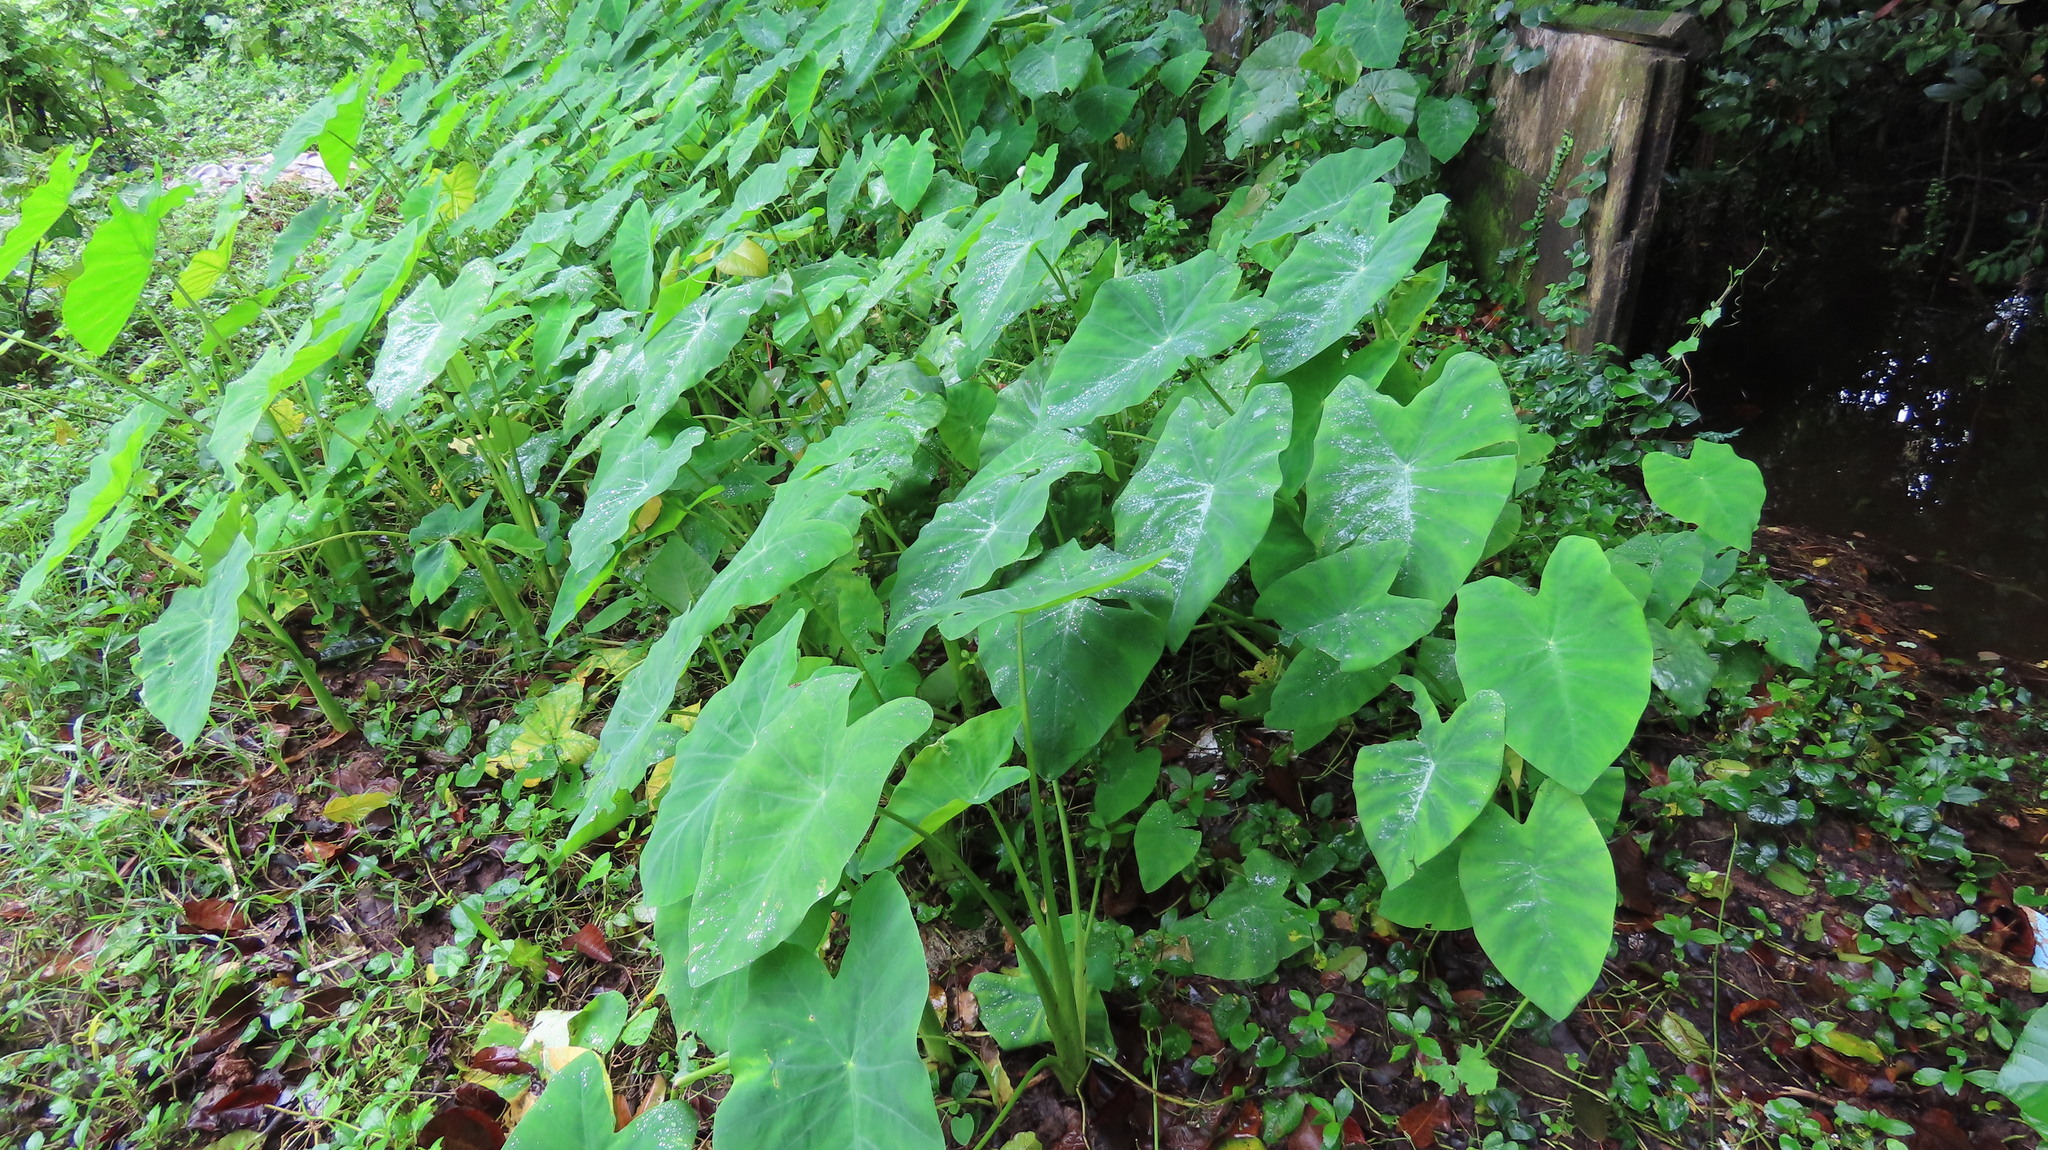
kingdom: Plantae
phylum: Tracheophyta
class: Liliopsida
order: Alismatales
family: Araceae
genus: Colocasia
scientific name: Colocasia esculenta
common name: Taro
